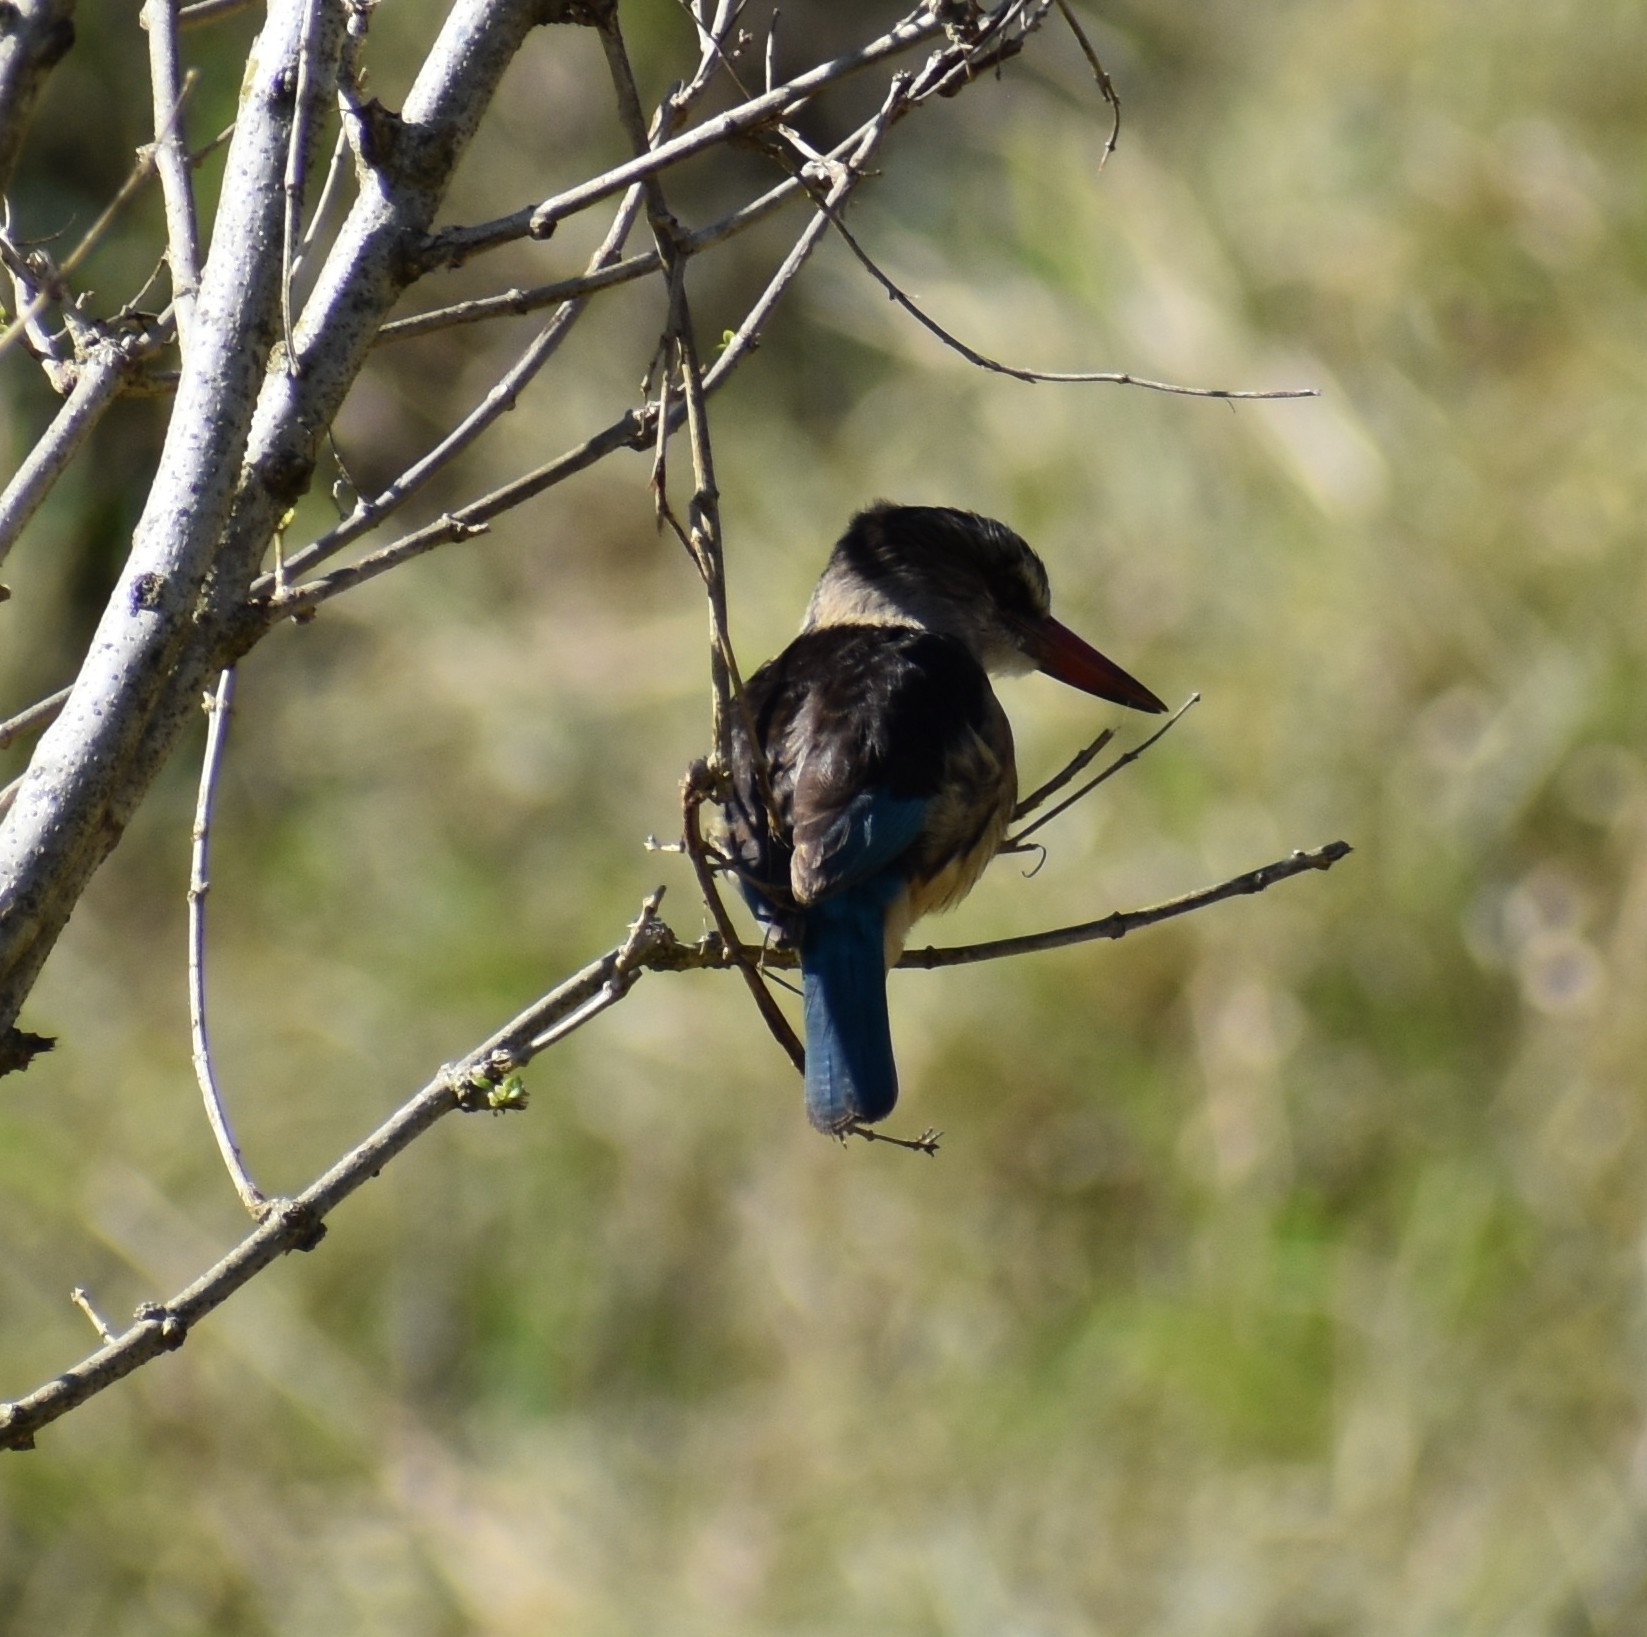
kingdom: Animalia
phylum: Chordata
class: Aves
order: Coraciiformes
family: Alcedinidae
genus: Halcyon
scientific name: Halcyon albiventris
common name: Brown-hooded kingfisher
